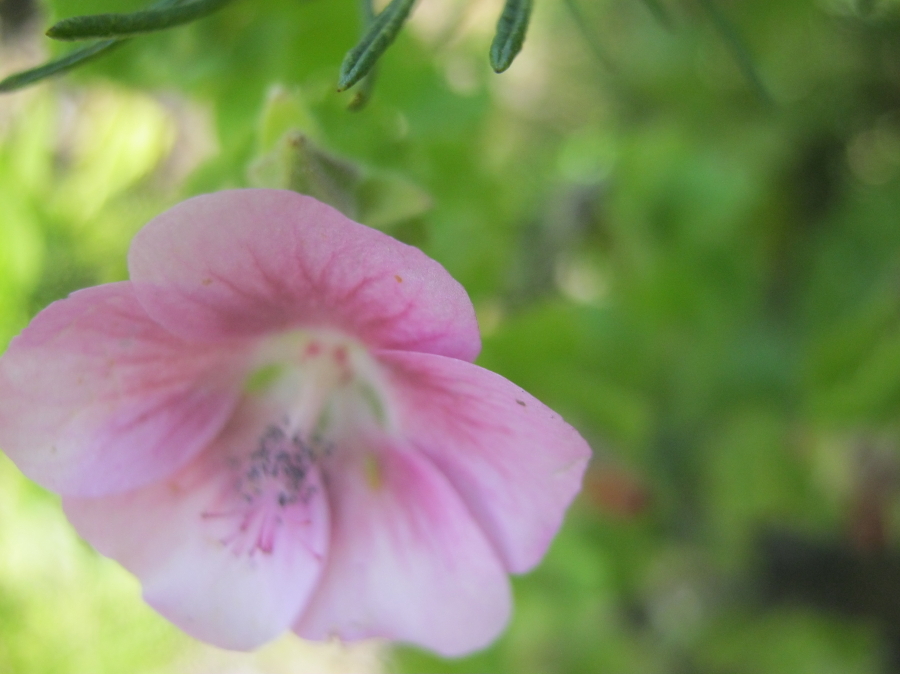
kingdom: Plantae
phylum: Tracheophyta
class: Magnoliopsida
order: Malvales
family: Malvaceae
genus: Anisodontea
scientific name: Anisodontea scabrosa
